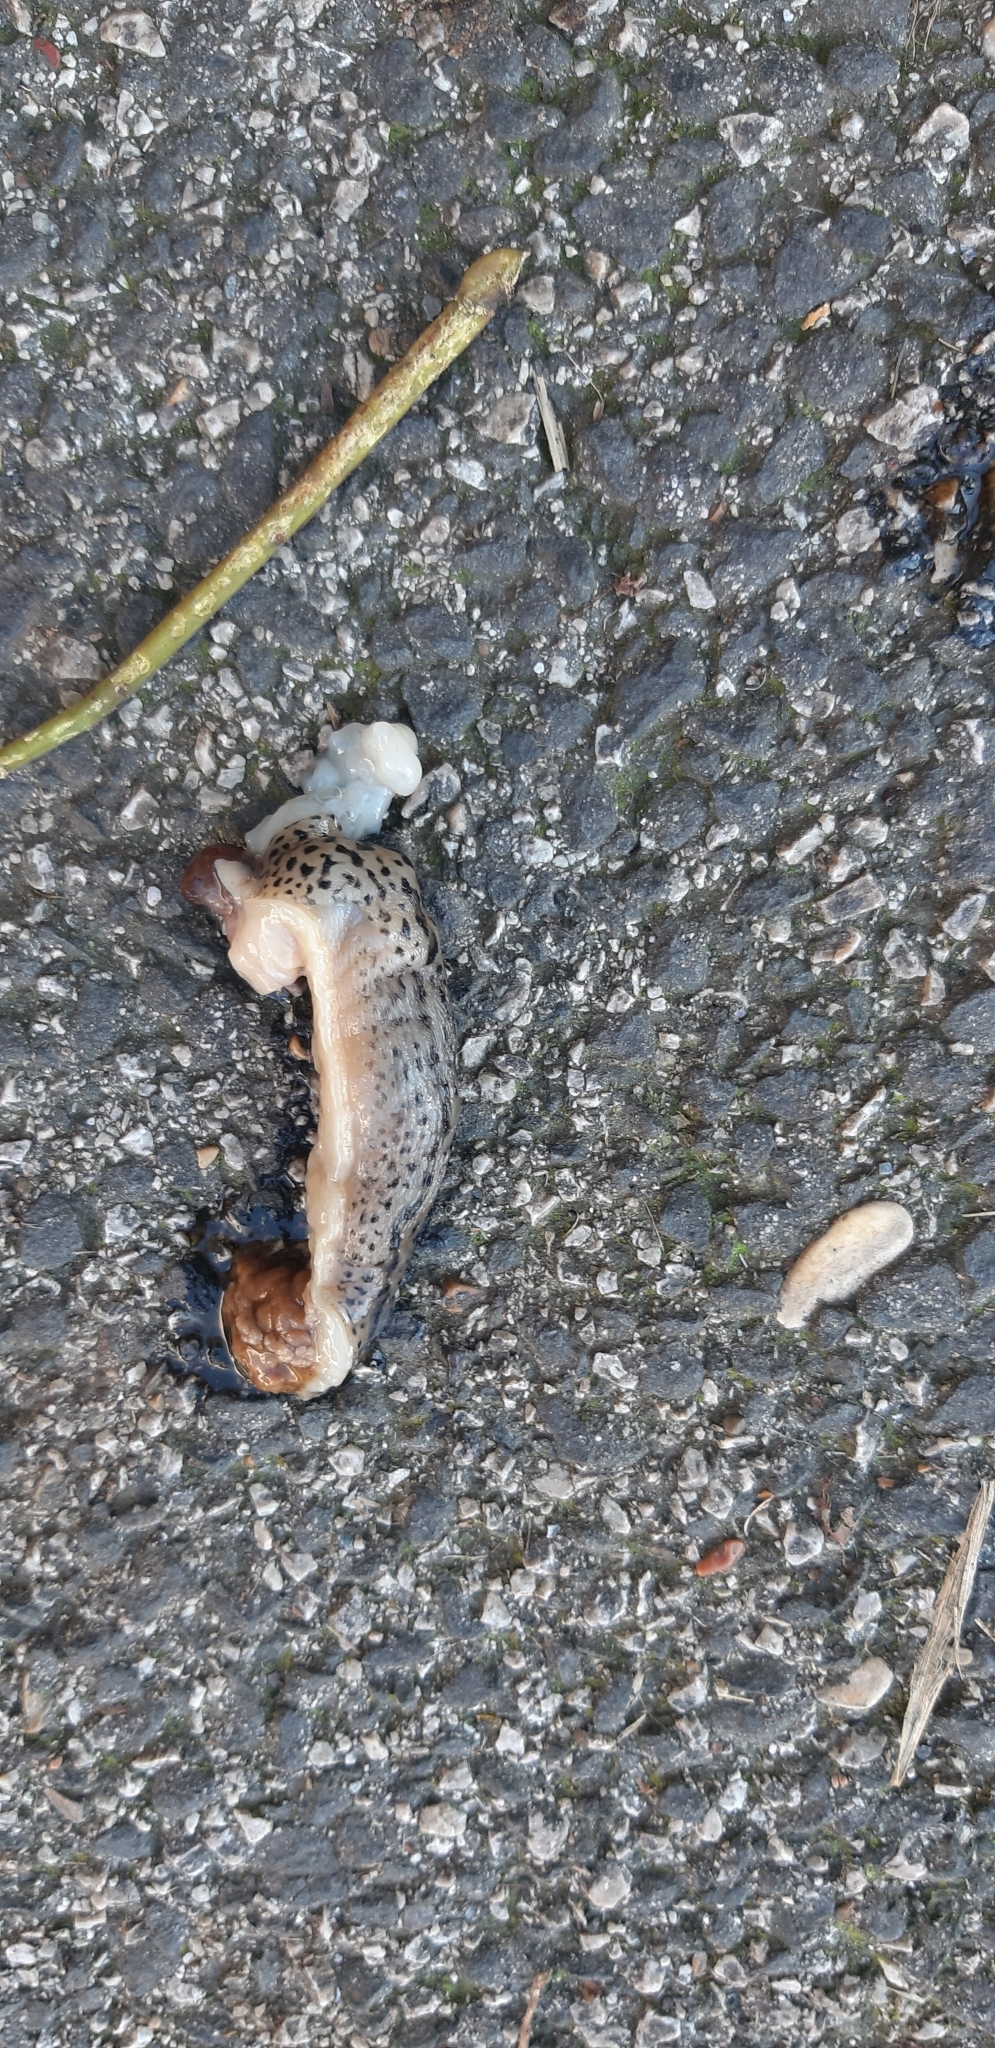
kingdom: Animalia
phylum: Mollusca
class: Gastropoda
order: Stylommatophora
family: Limacidae
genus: Limax
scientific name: Limax maximus
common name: Great grey slug
